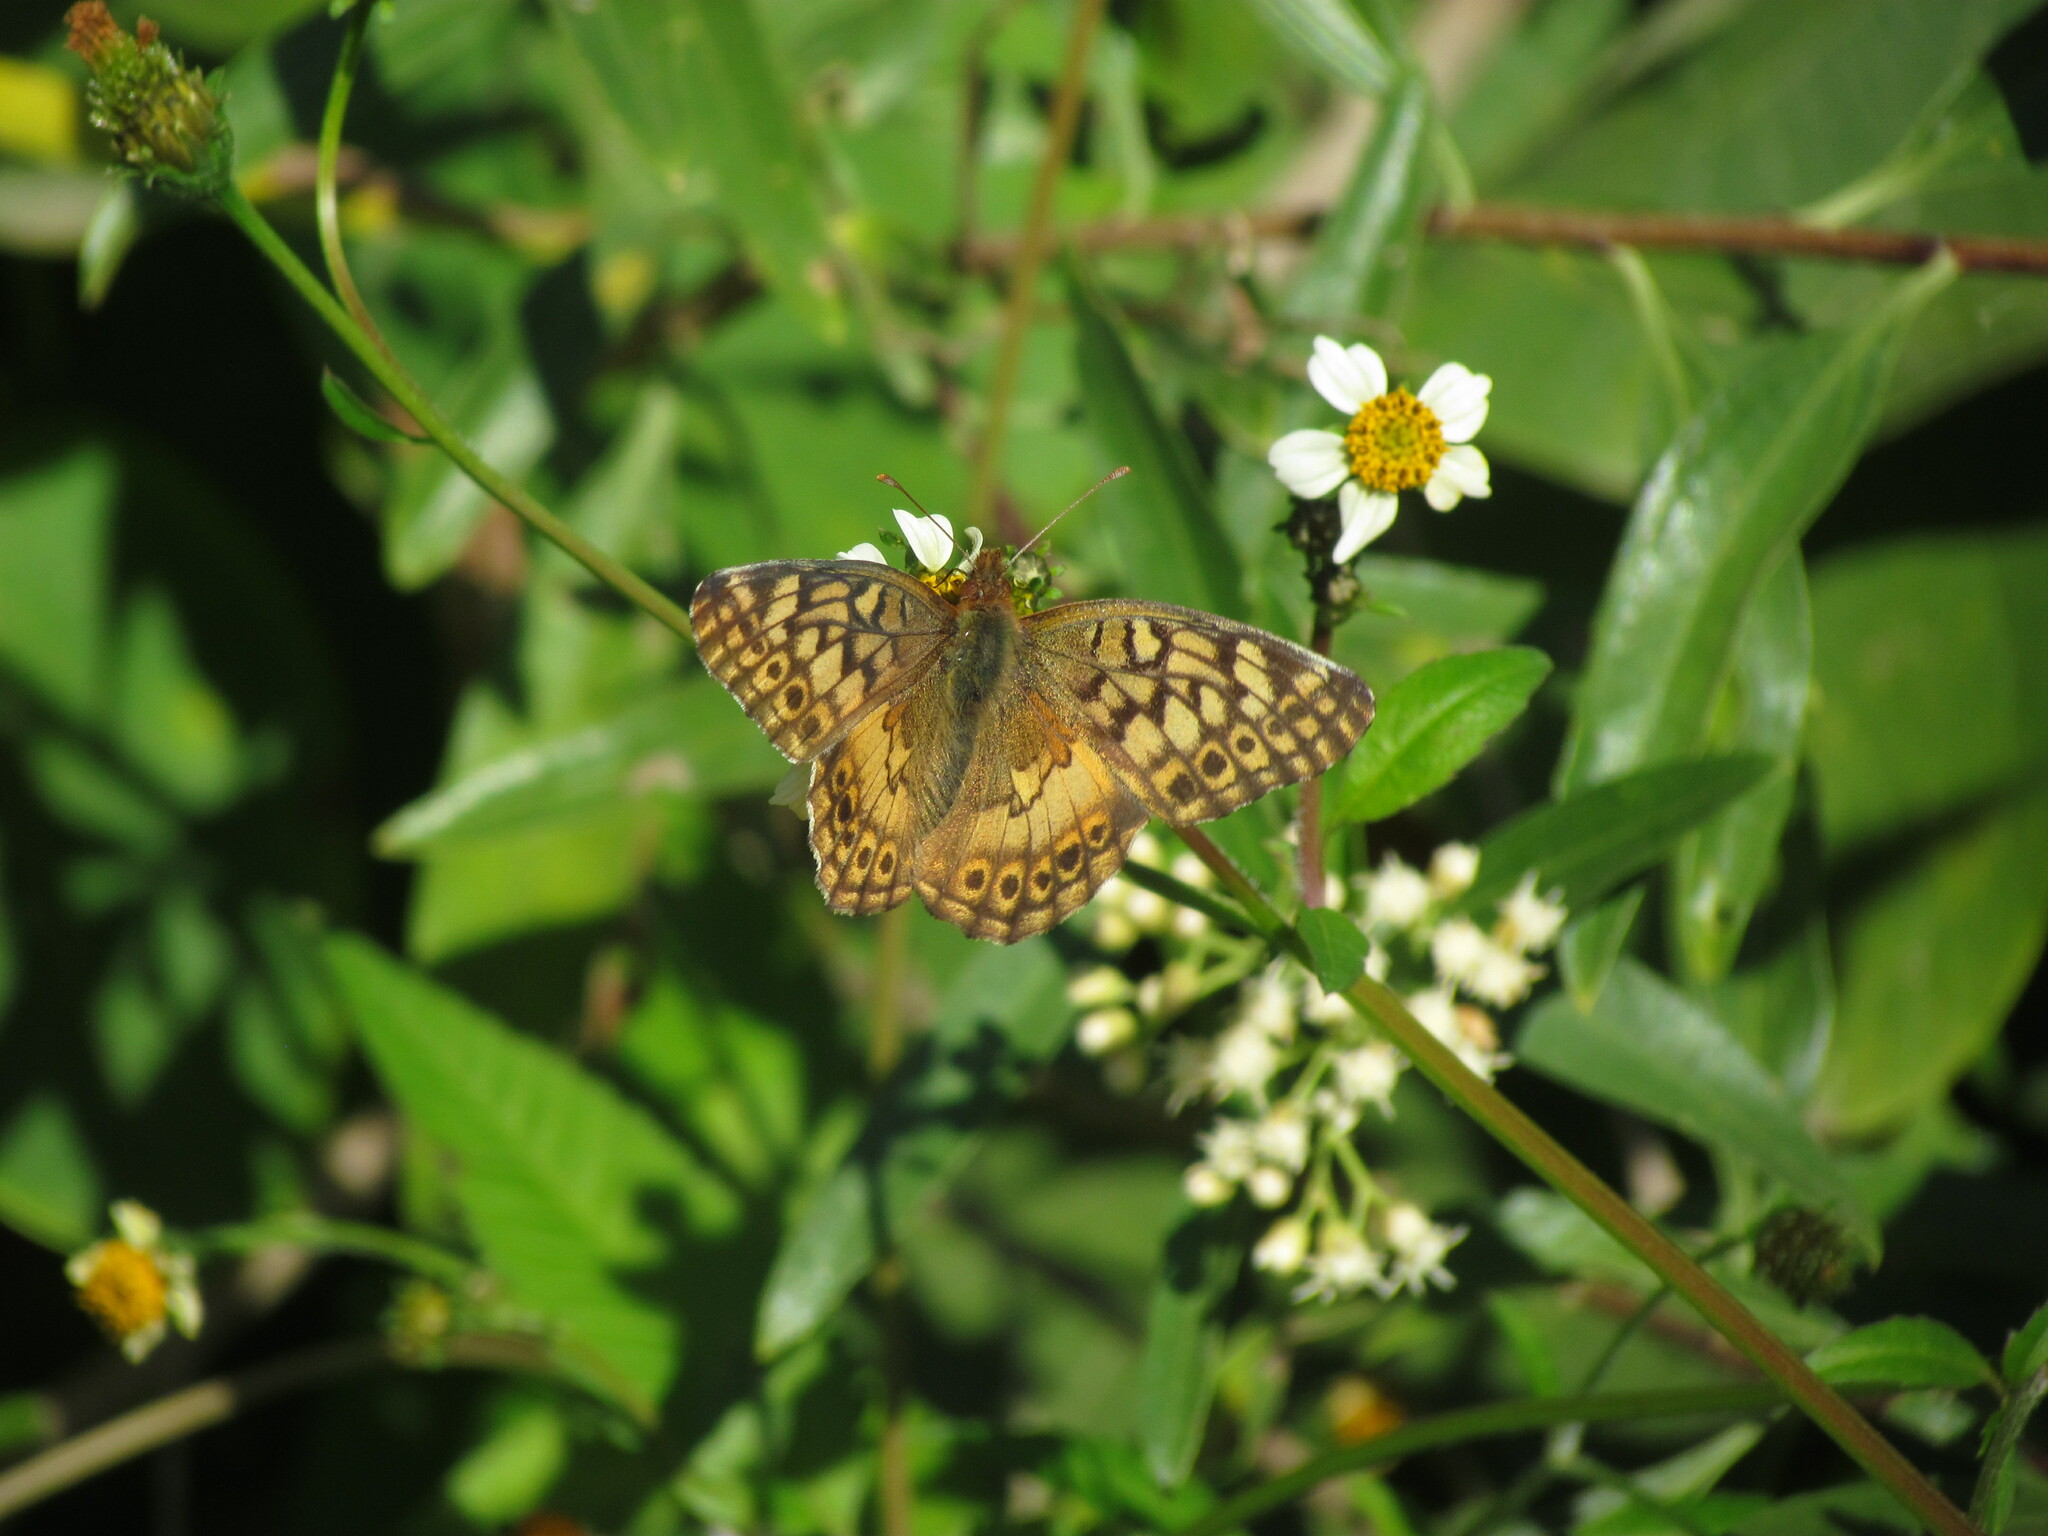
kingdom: Animalia
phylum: Arthropoda
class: Insecta
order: Lepidoptera
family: Nymphalidae
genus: Euptoieta
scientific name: Euptoieta hortensia
